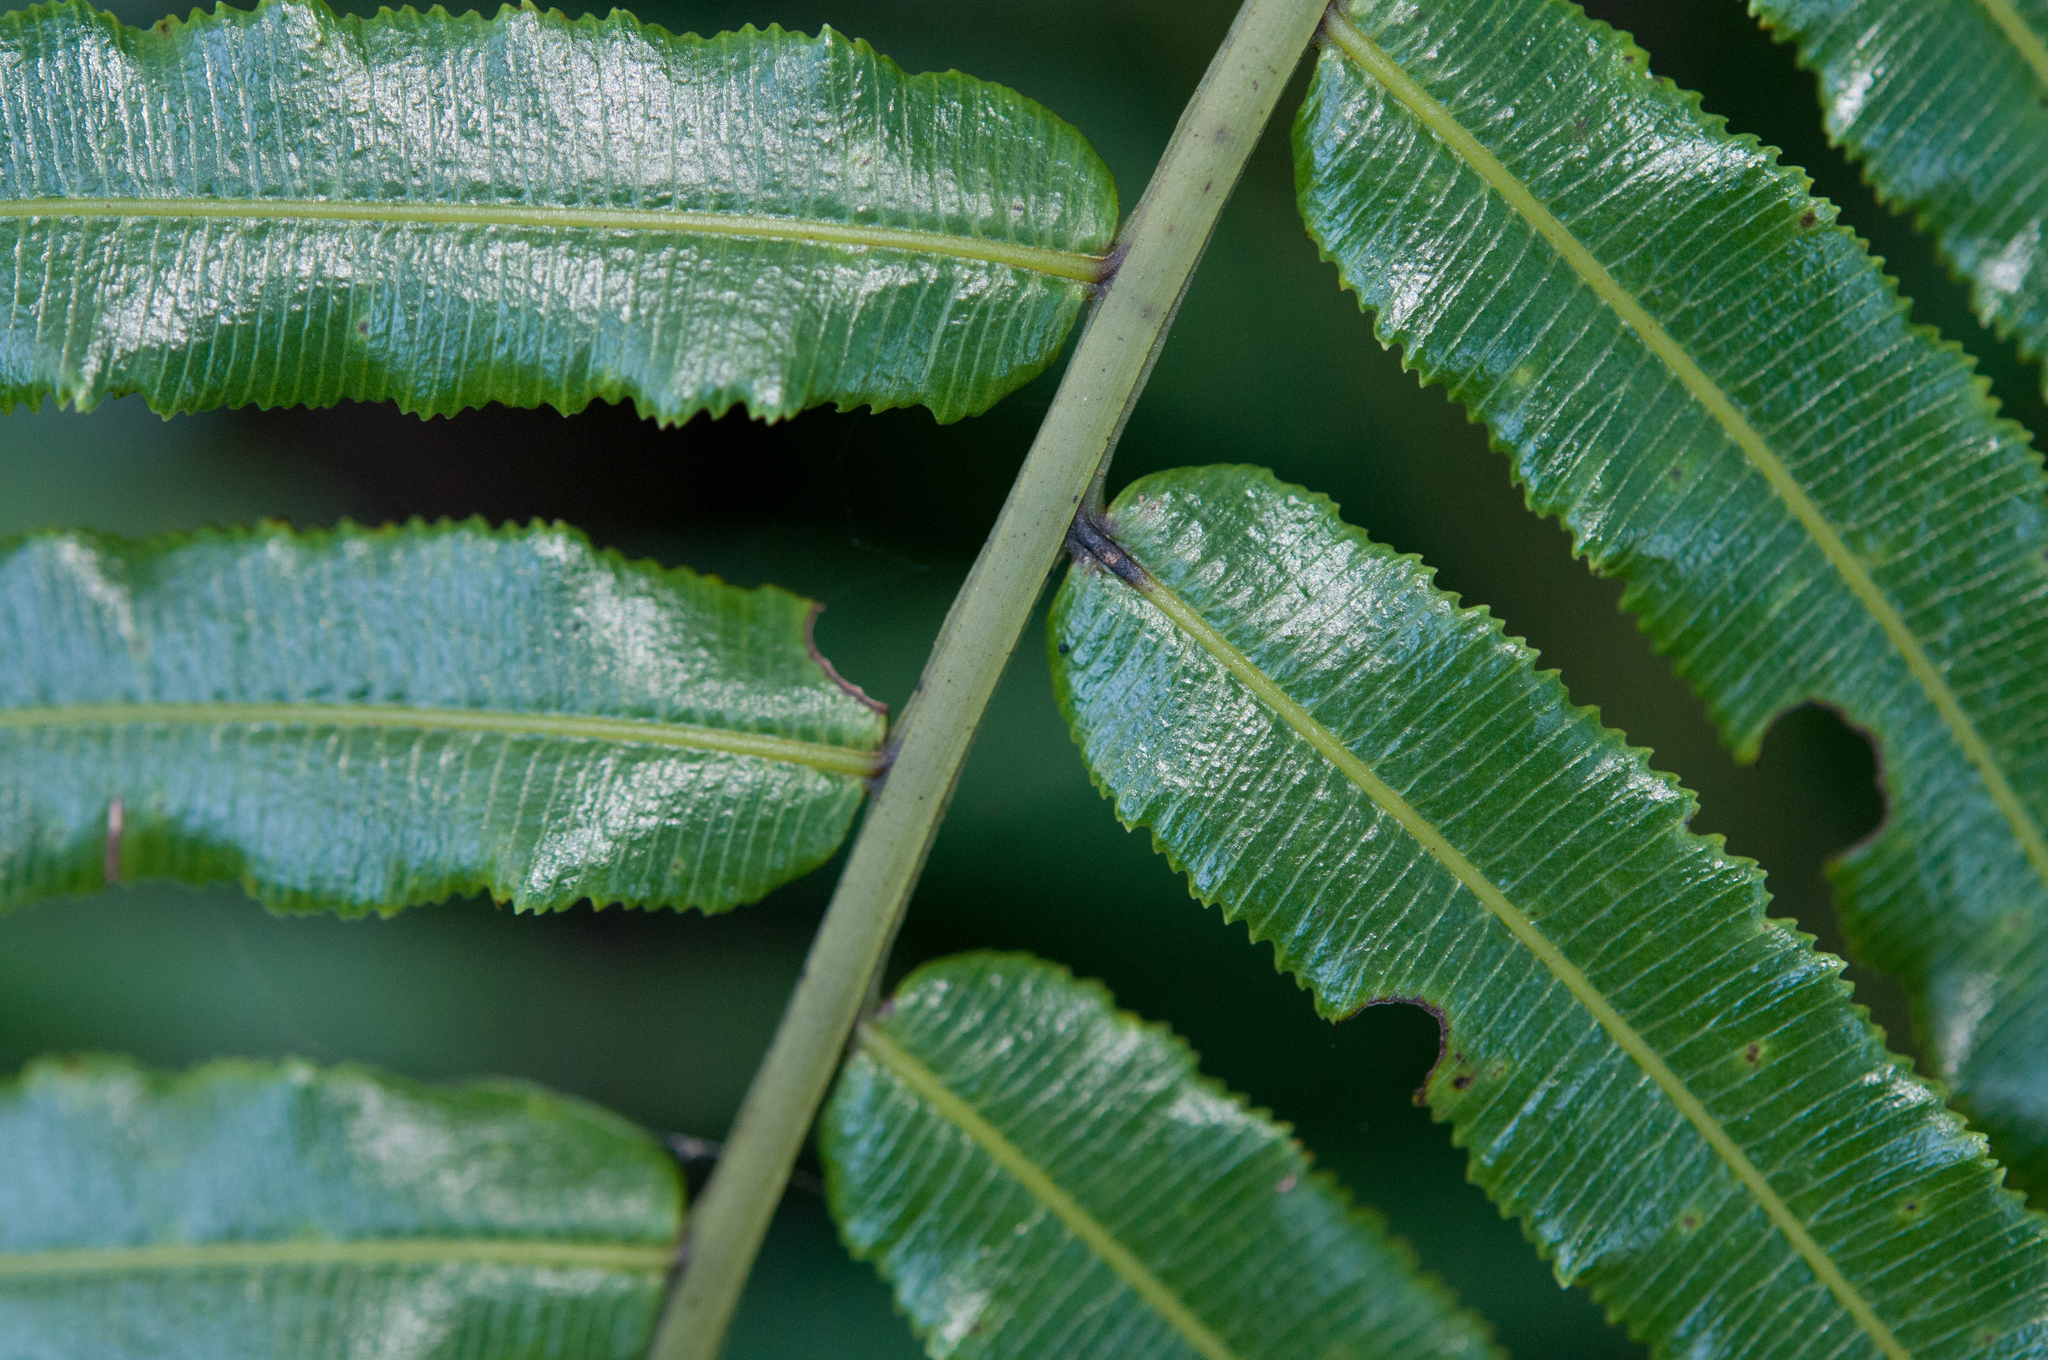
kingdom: Plantae
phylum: Tracheophyta
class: Polypodiopsida
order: Cyatheales
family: Plagiogyriaceae
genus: Plagiogyria
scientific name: Plagiogyria glauca
